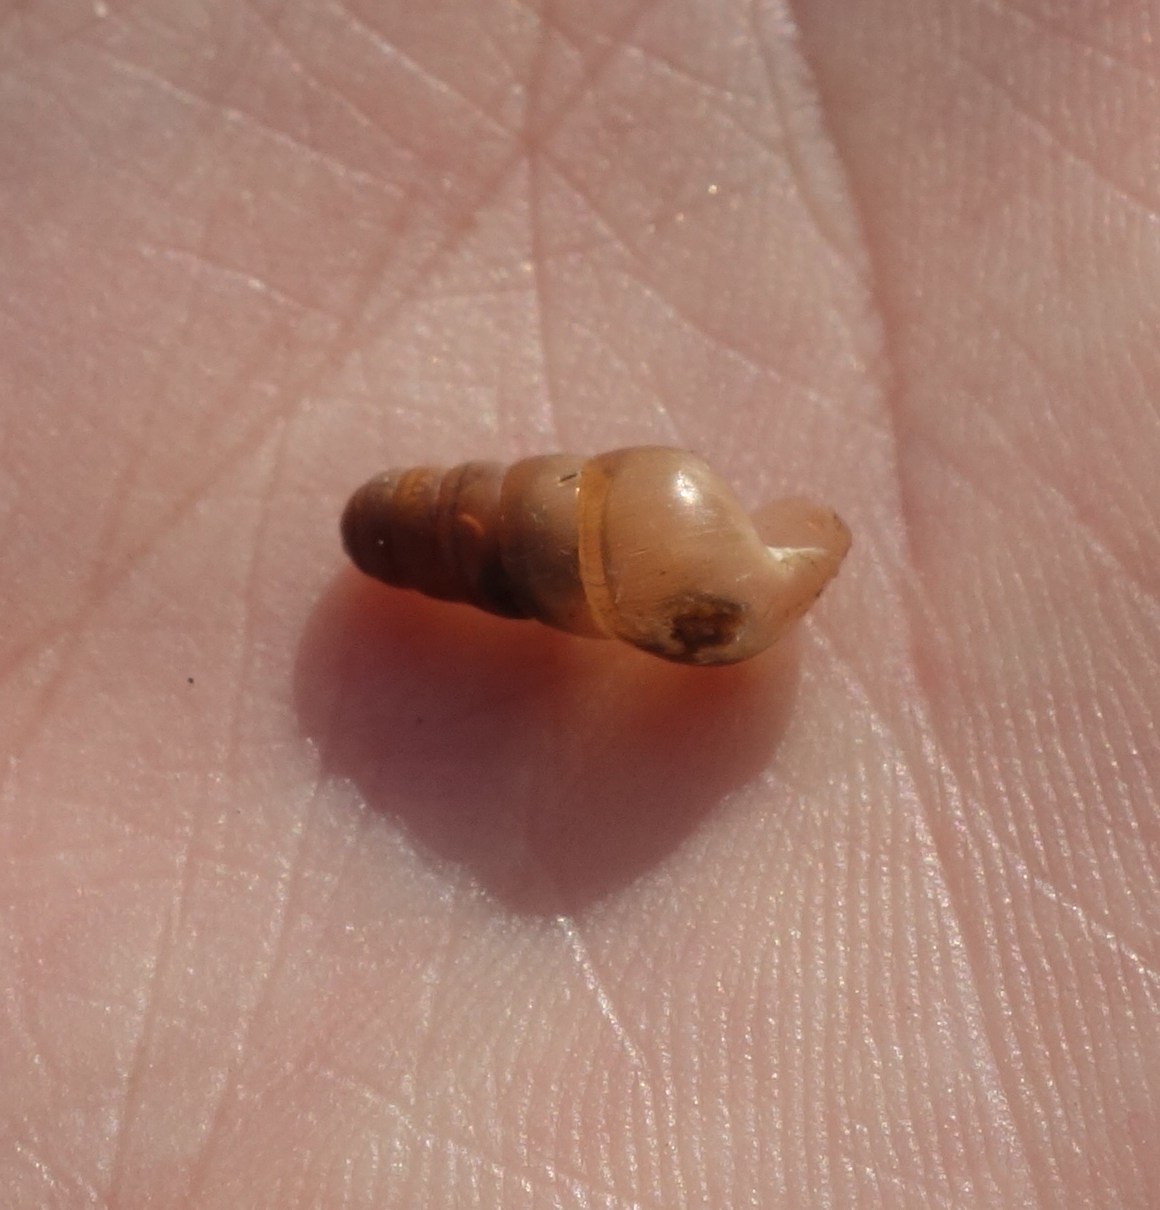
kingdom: Animalia
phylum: Mollusca
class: Gastropoda
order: Stylommatophora
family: Achatinidae
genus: Rumina
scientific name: Rumina decollata
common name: Decollate snail
